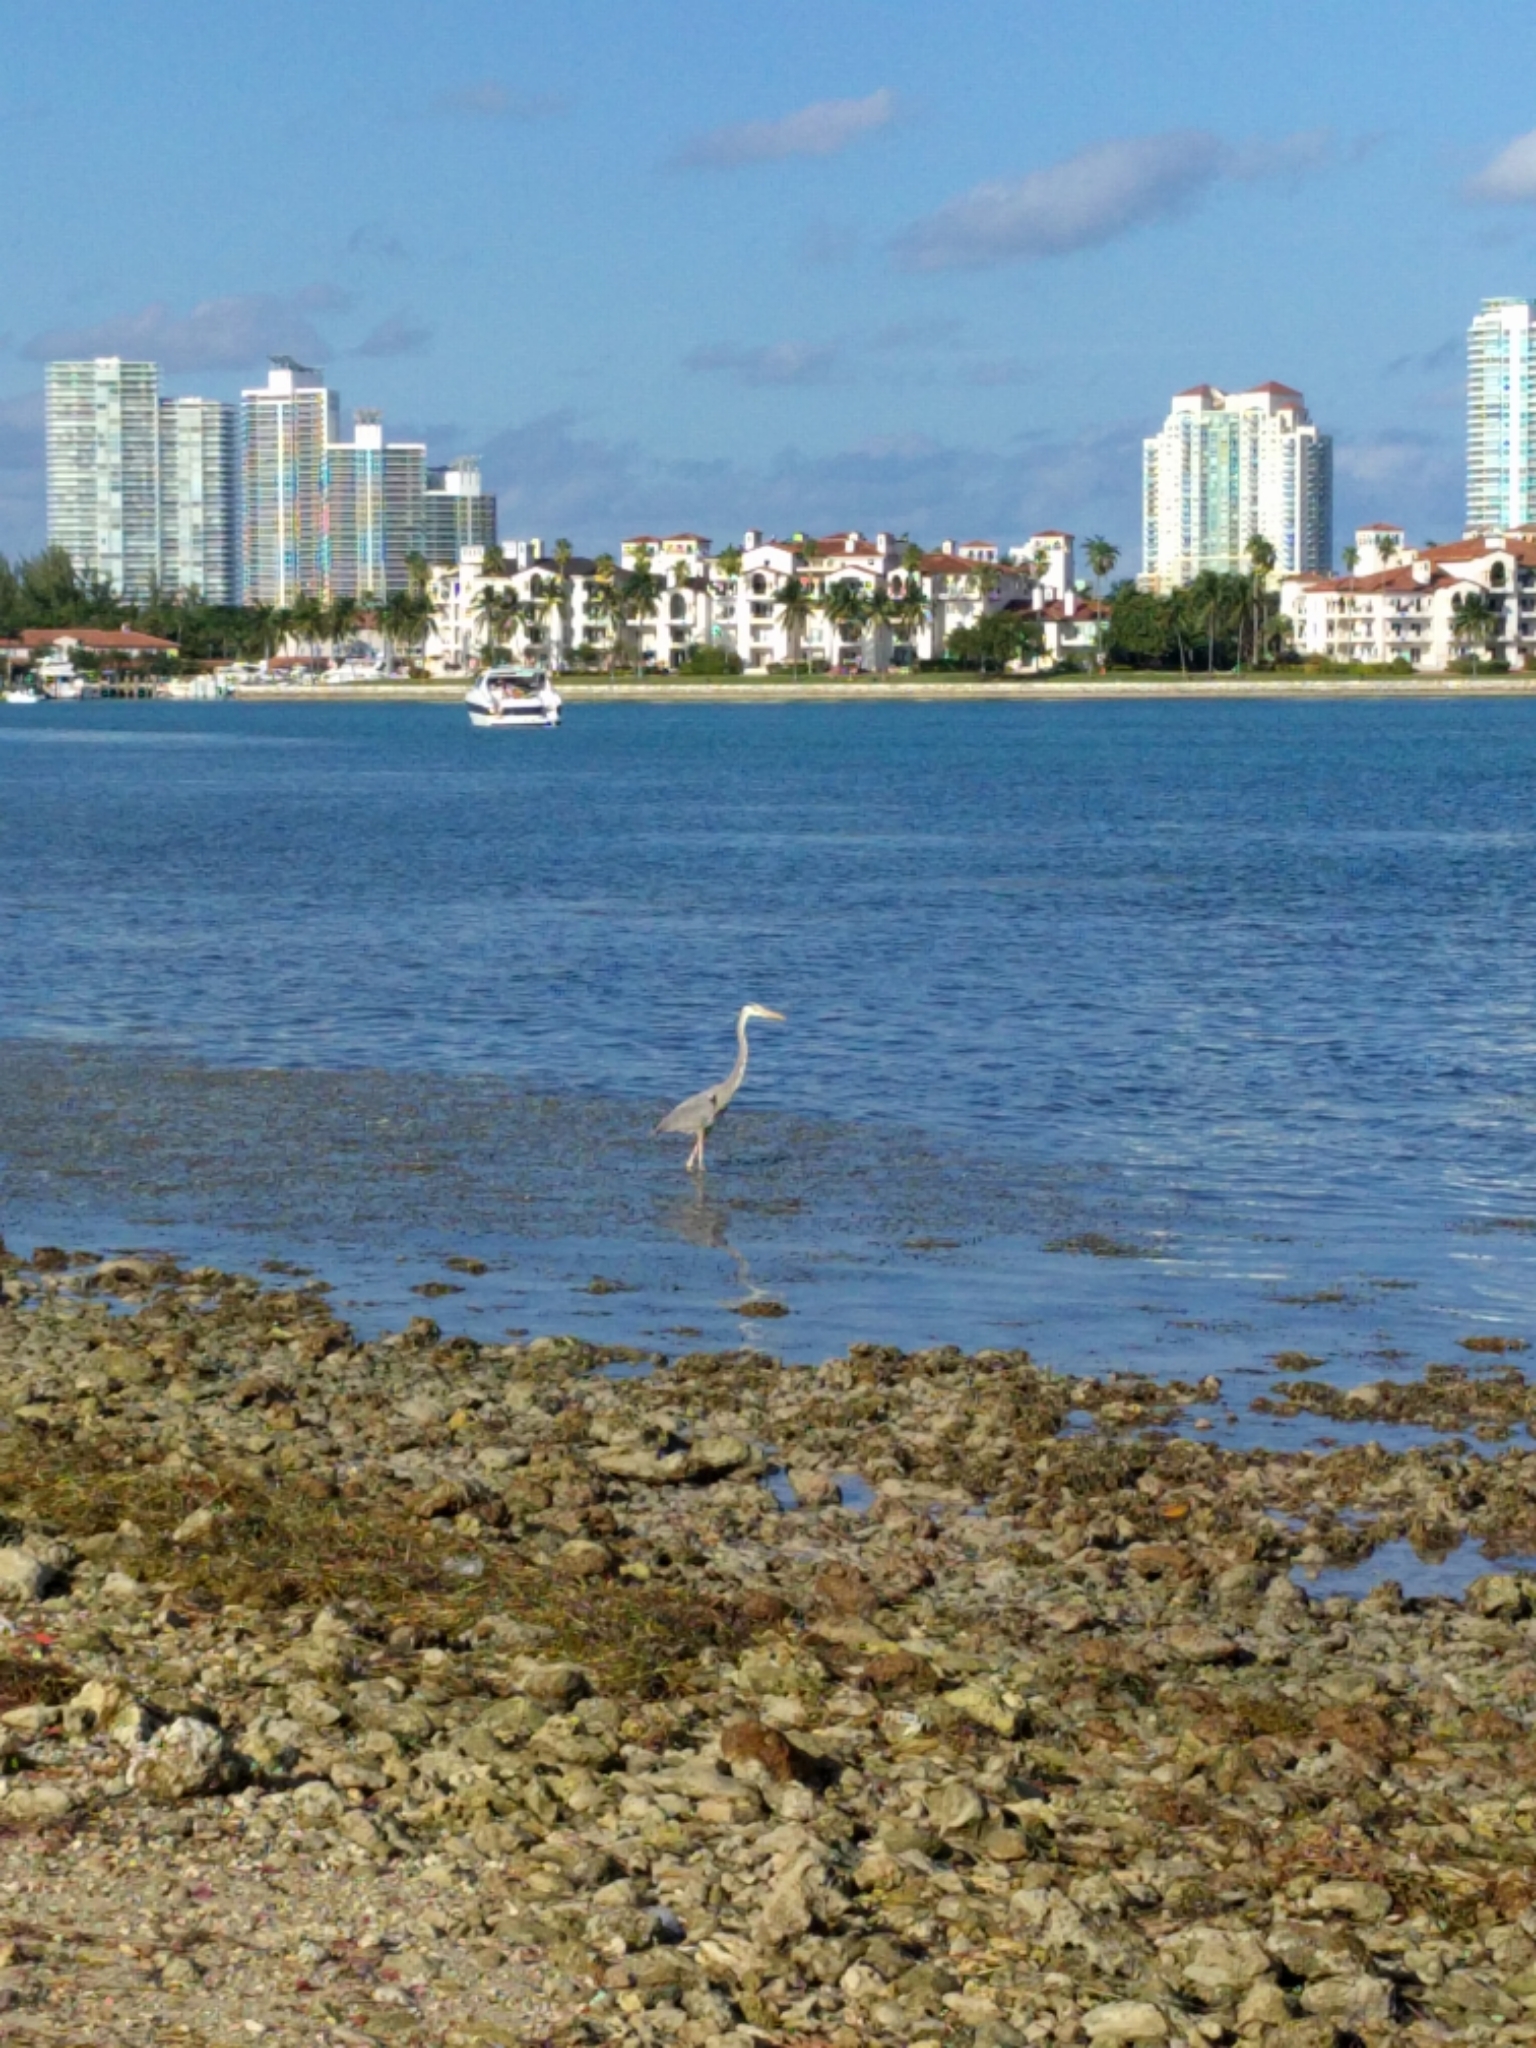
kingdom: Animalia
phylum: Chordata
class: Aves
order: Pelecaniformes
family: Ardeidae
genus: Ardea
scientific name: Ardea herodias
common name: Great blue heron
